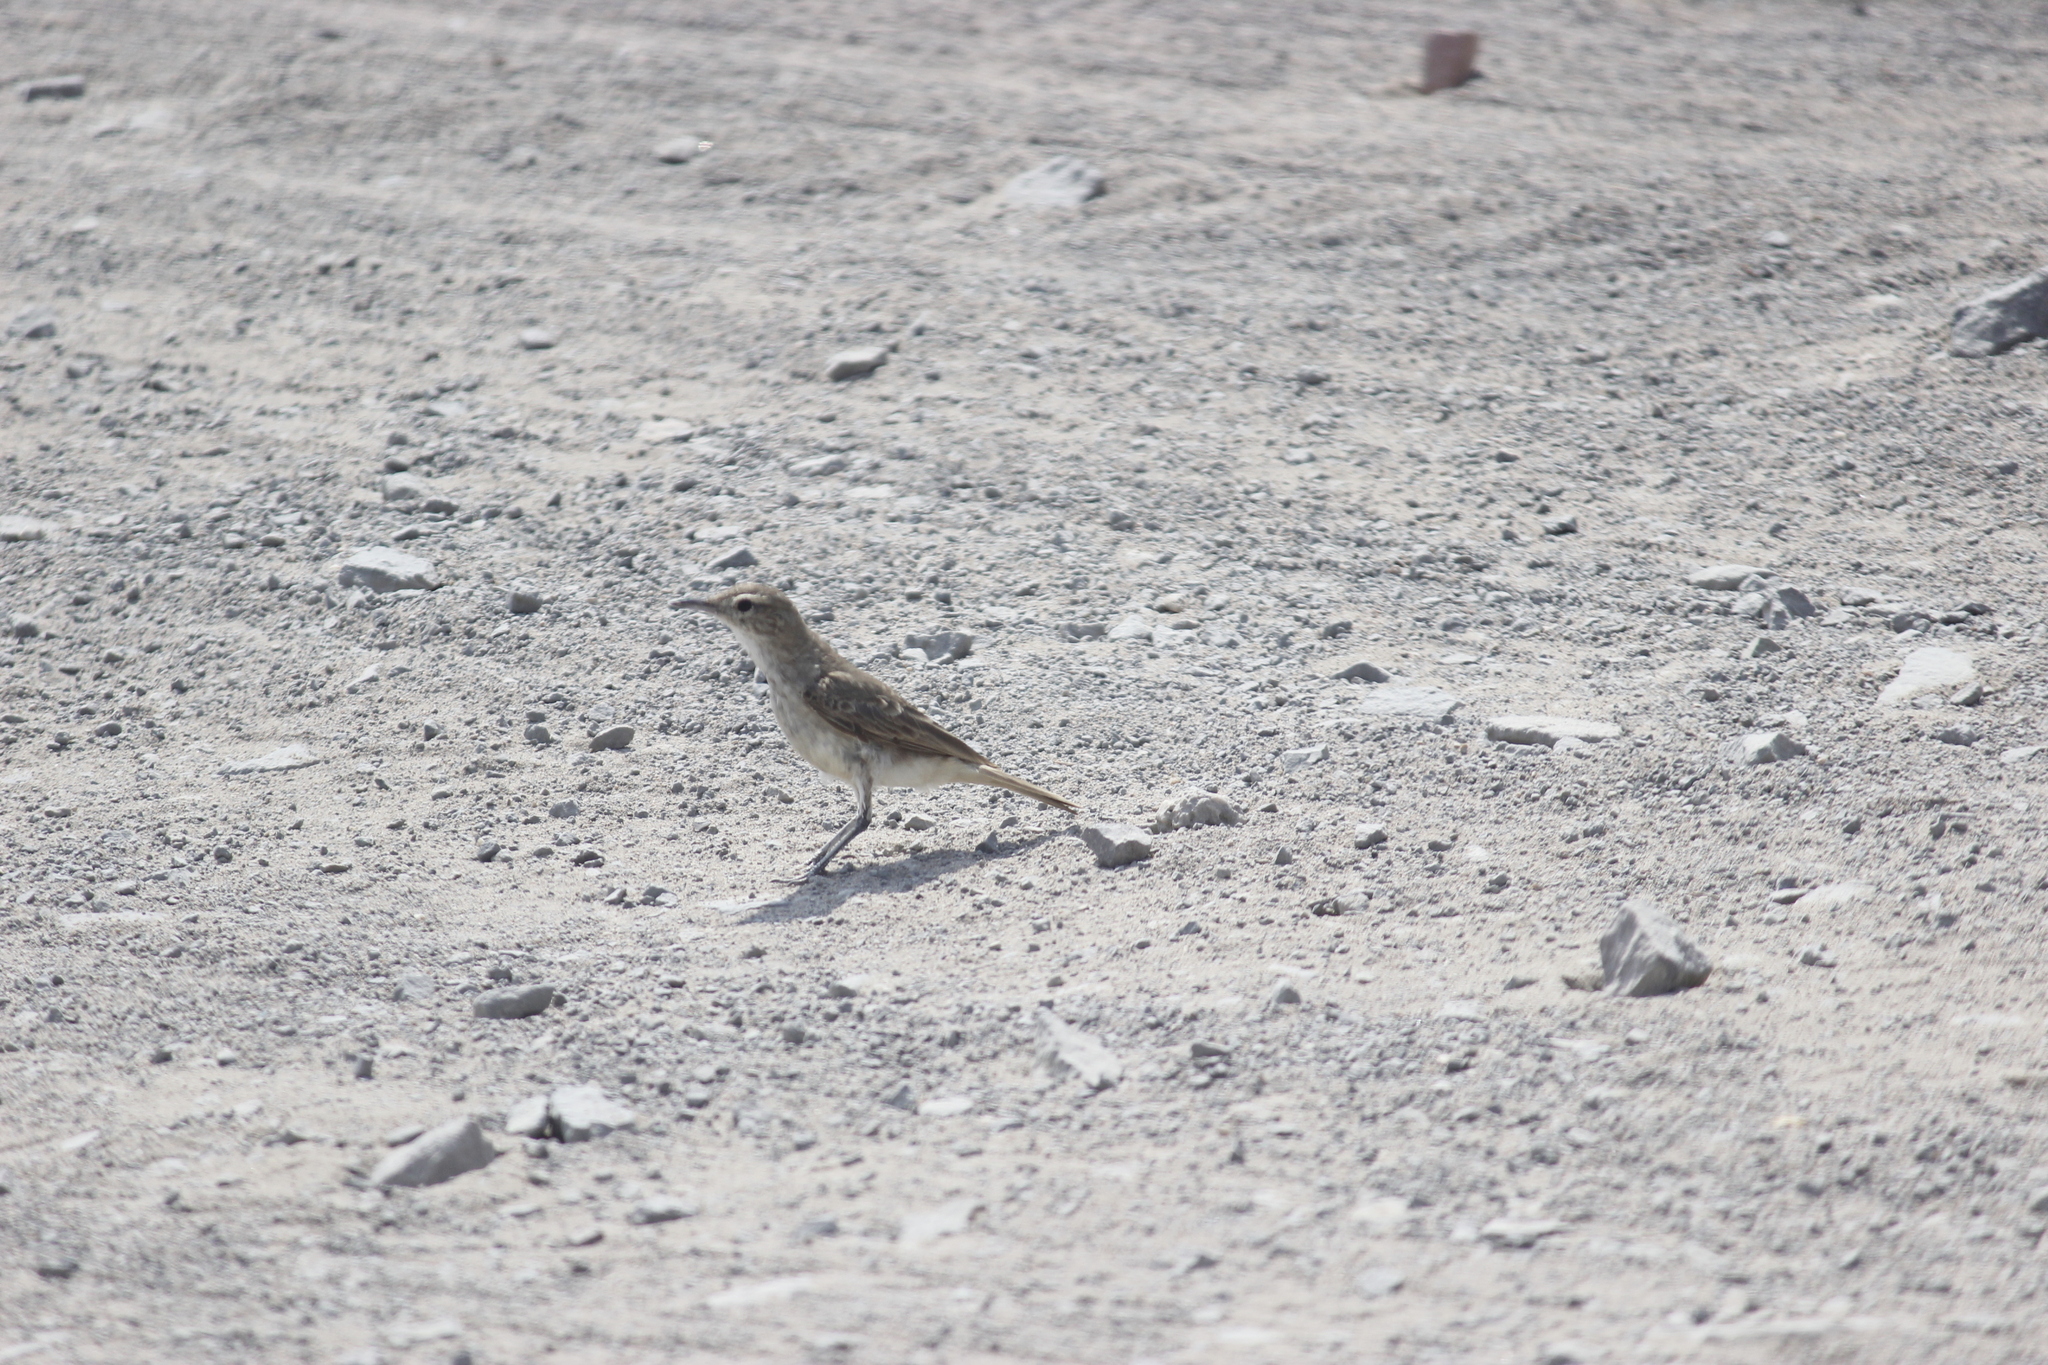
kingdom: Animalia
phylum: Chordata
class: Aves
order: Passeriformes
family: Furnariidae
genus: Geositta
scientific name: Geositta peruviana
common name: Coastal miner
